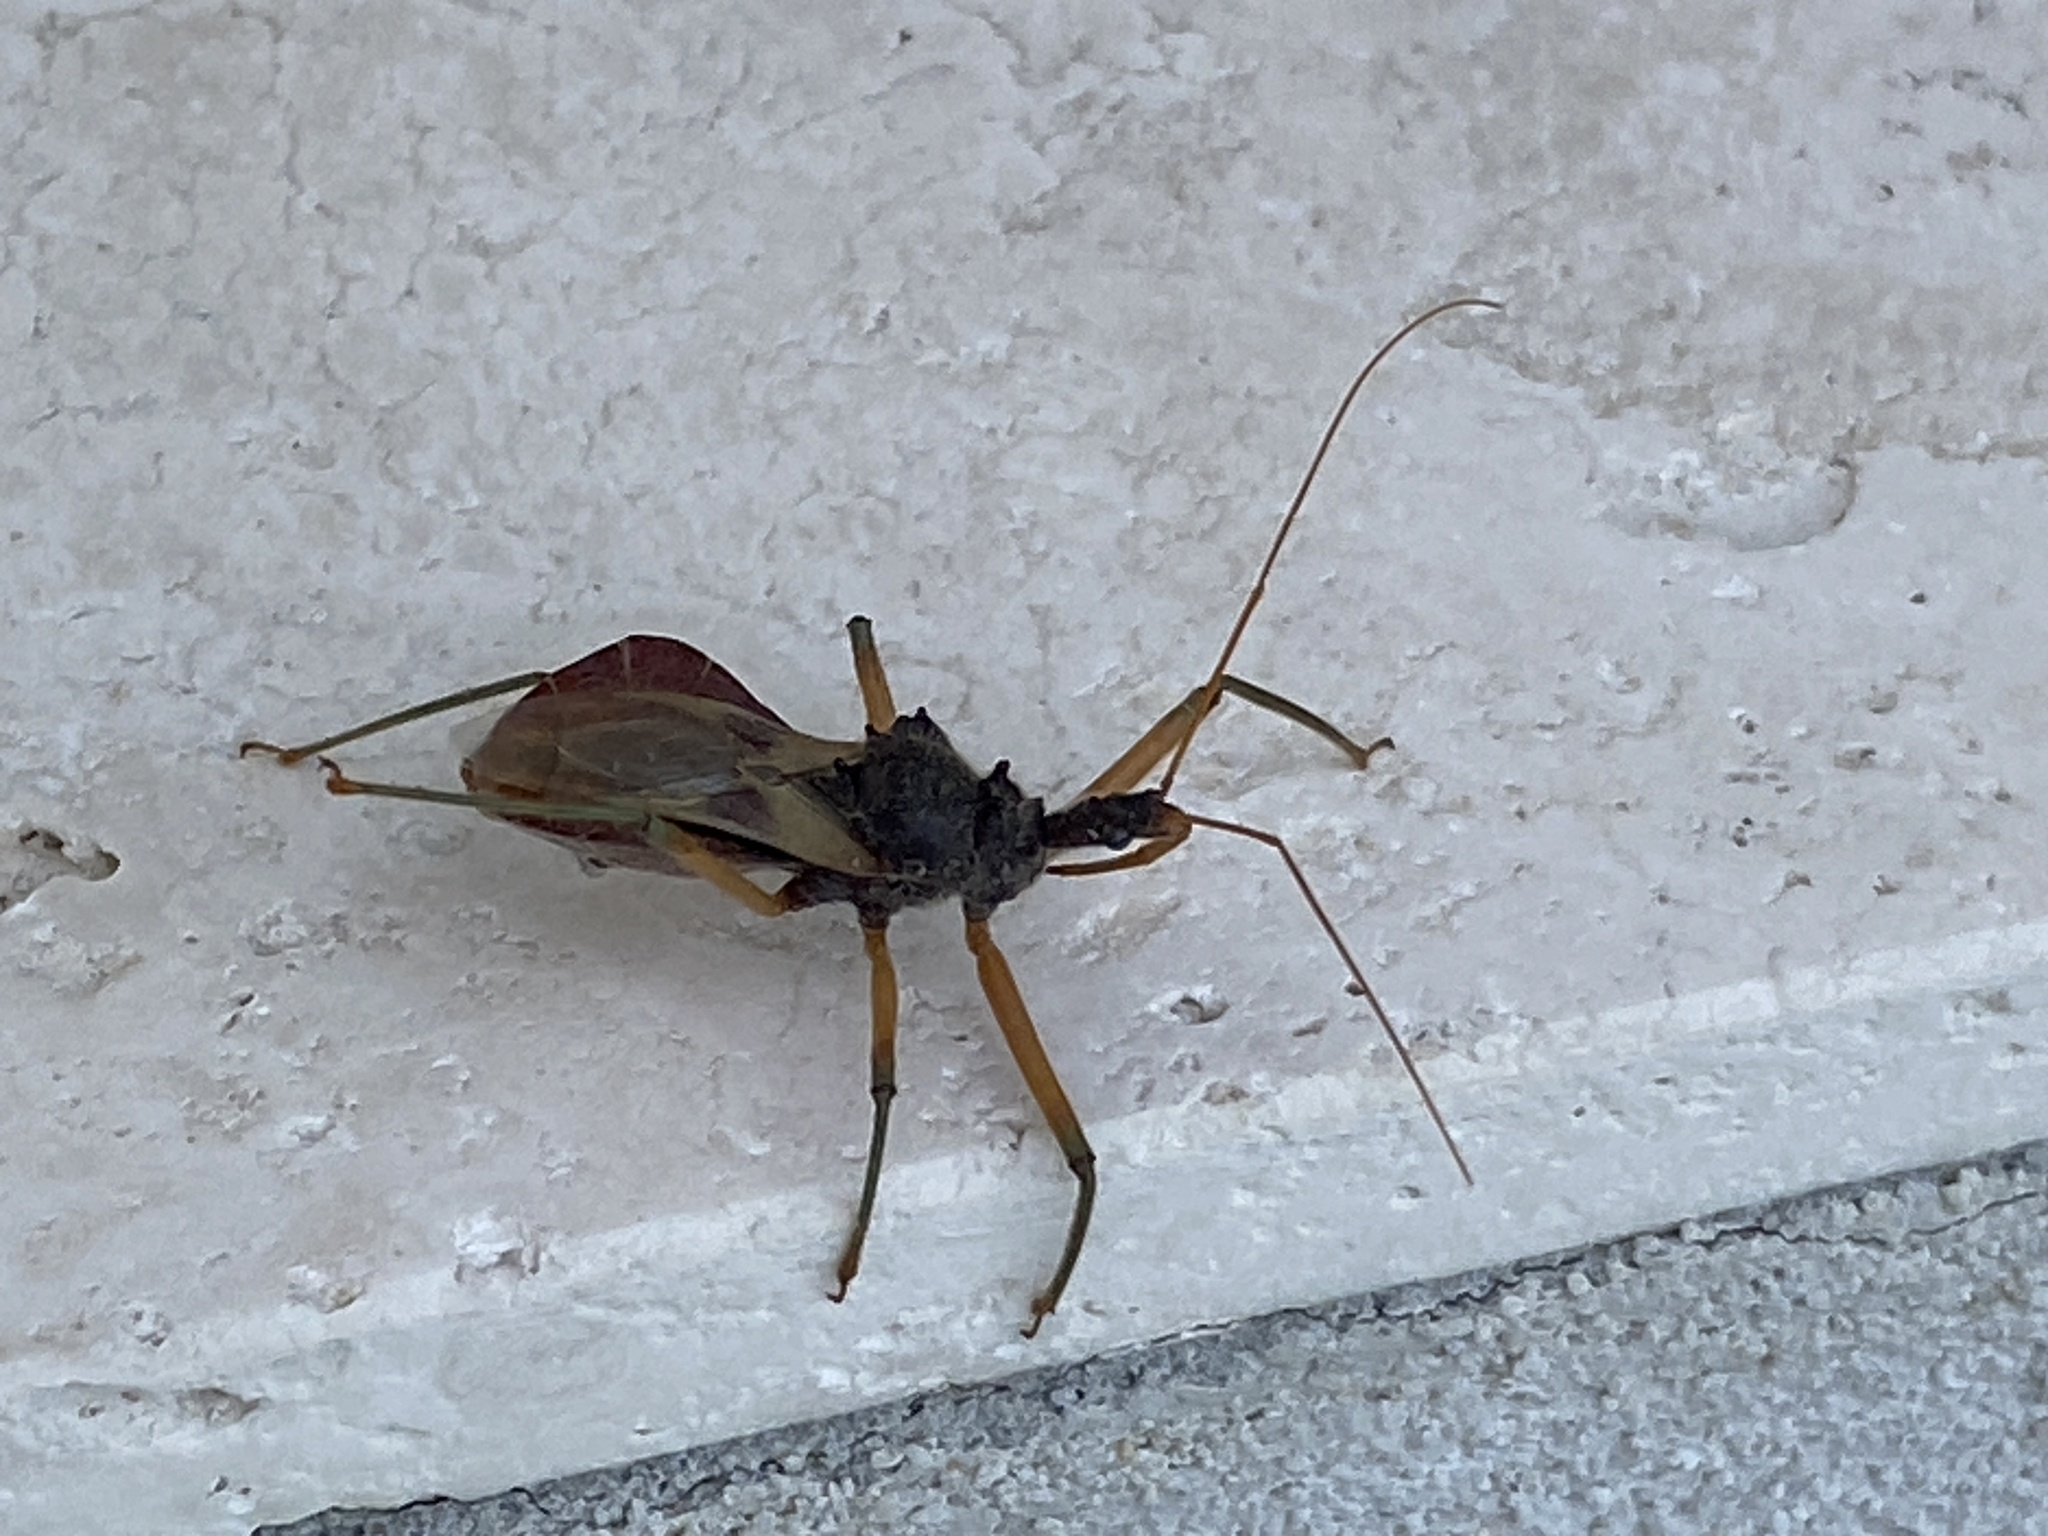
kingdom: Animalia
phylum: Arthropoda
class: Insecta
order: Hemiptera
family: Reduviidae
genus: Pristhesancus
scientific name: Pristhesancus plagipennis
